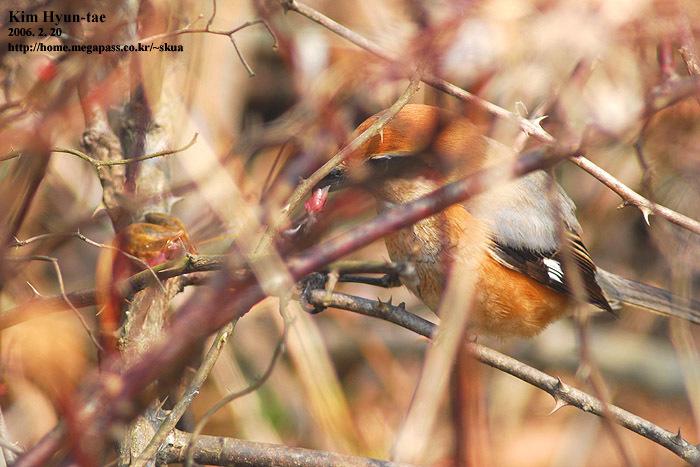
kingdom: Animalia
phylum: Chordata
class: Aves
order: Passeriformes
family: Laniidae
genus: Lanius
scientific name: Lanius bucephalus
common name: Bull-headed shrike
